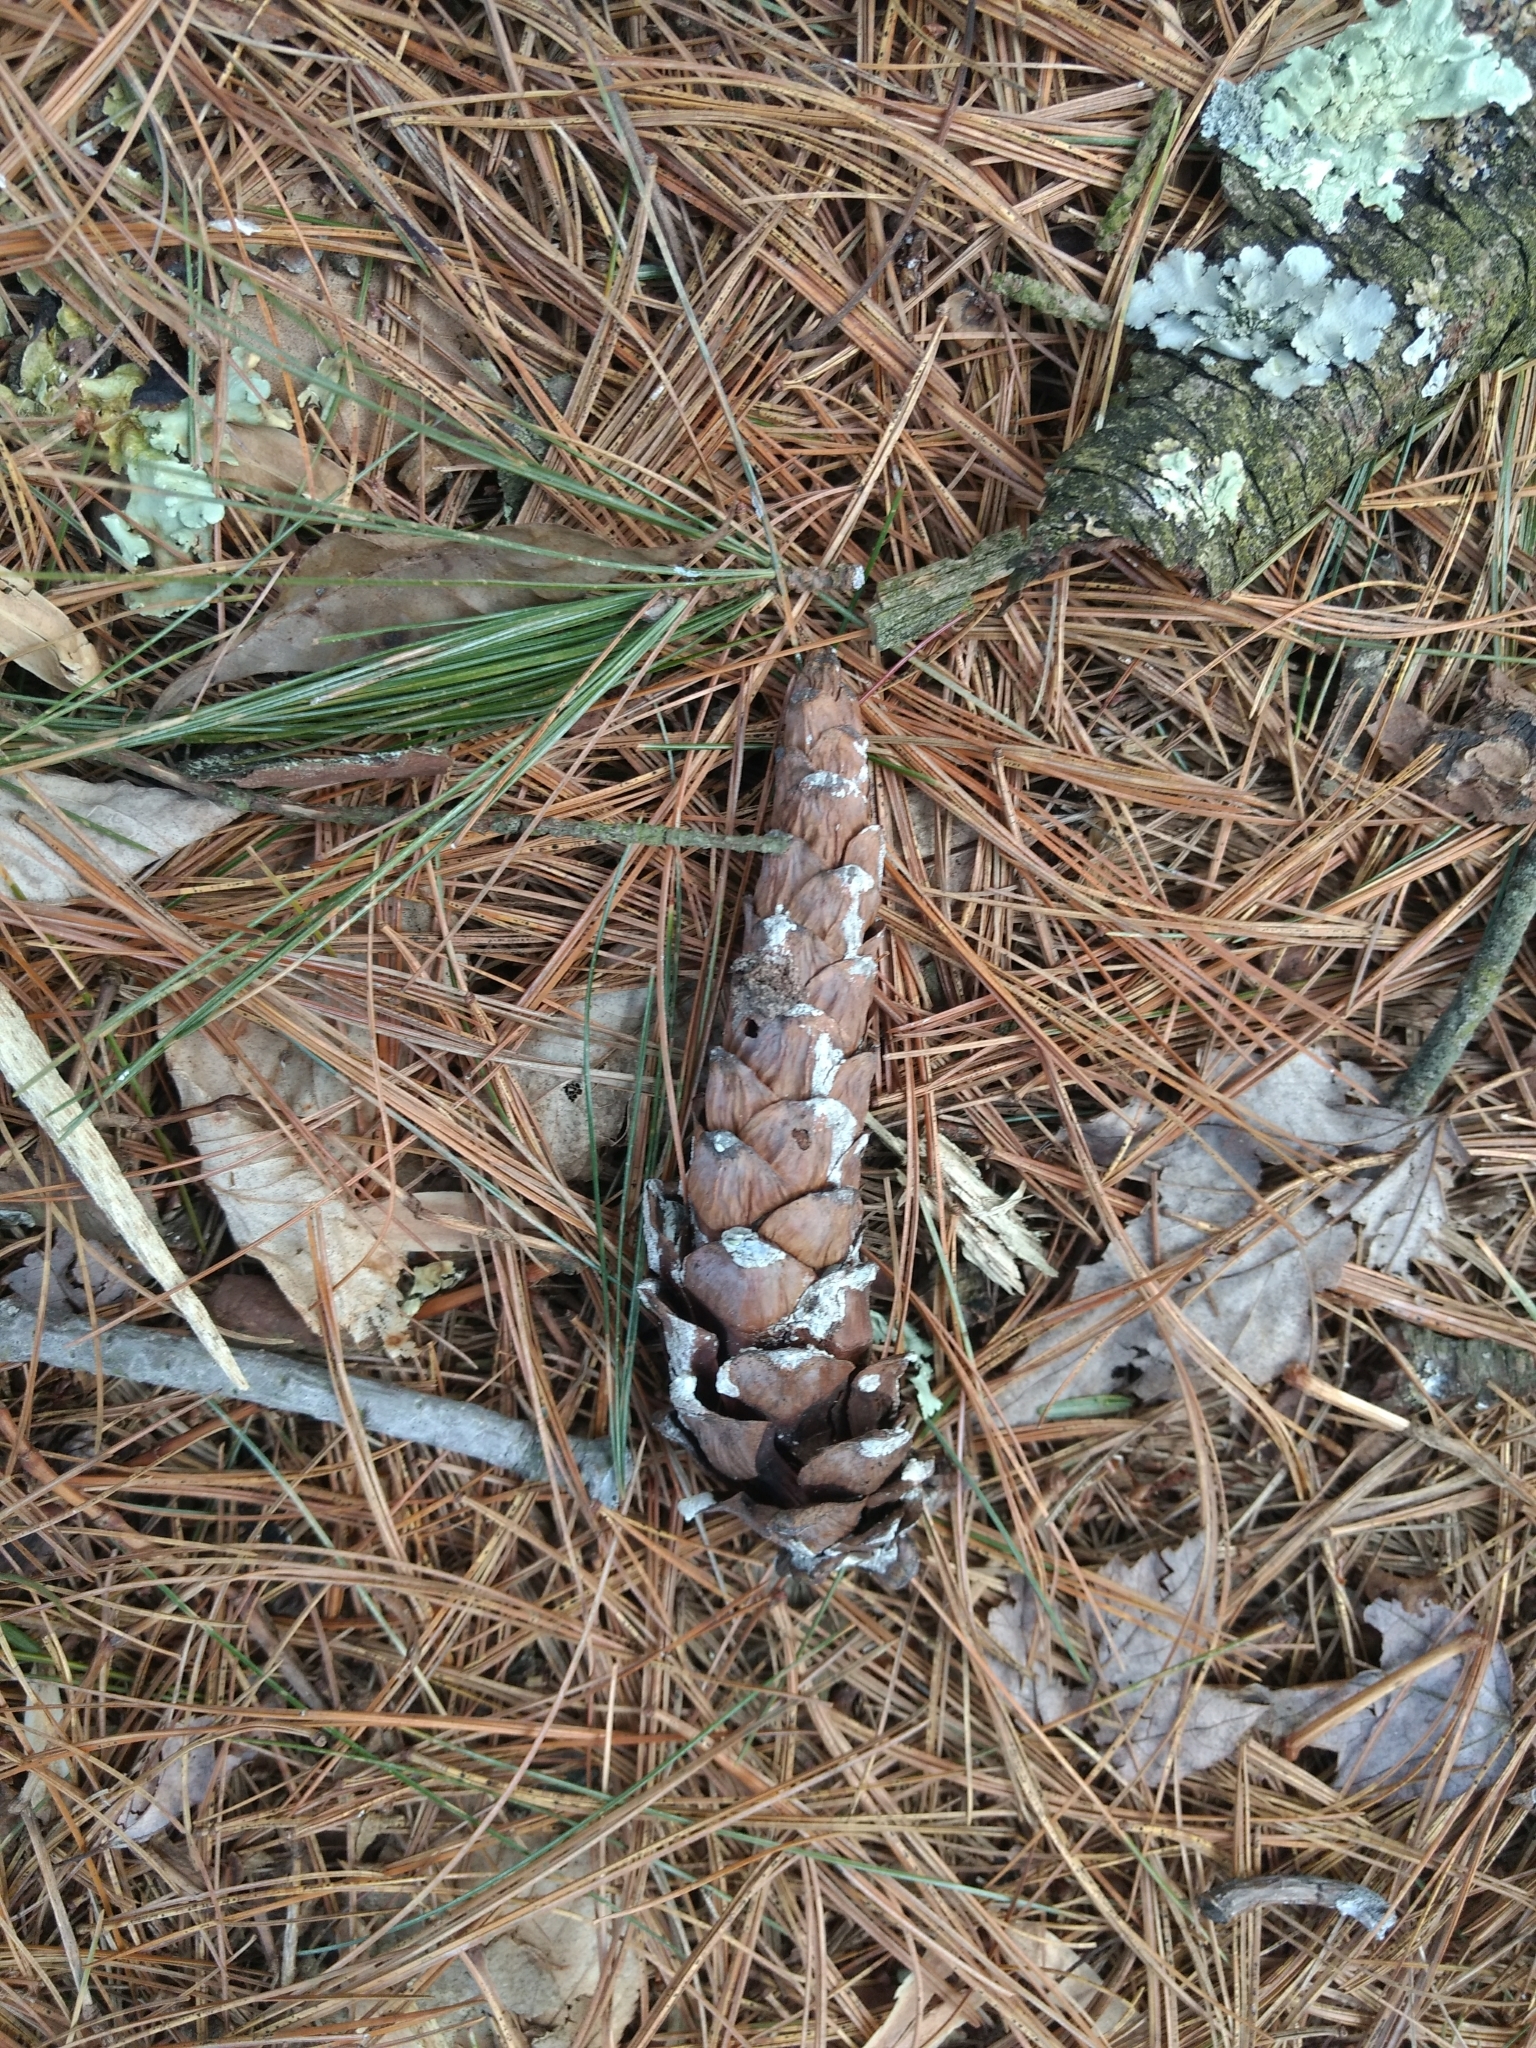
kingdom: Plantae
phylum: Tracheophyta
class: Pinopsida
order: Pinales
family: Pinaceae
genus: Pinus
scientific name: Pinus strobus
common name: Weymouth pine
